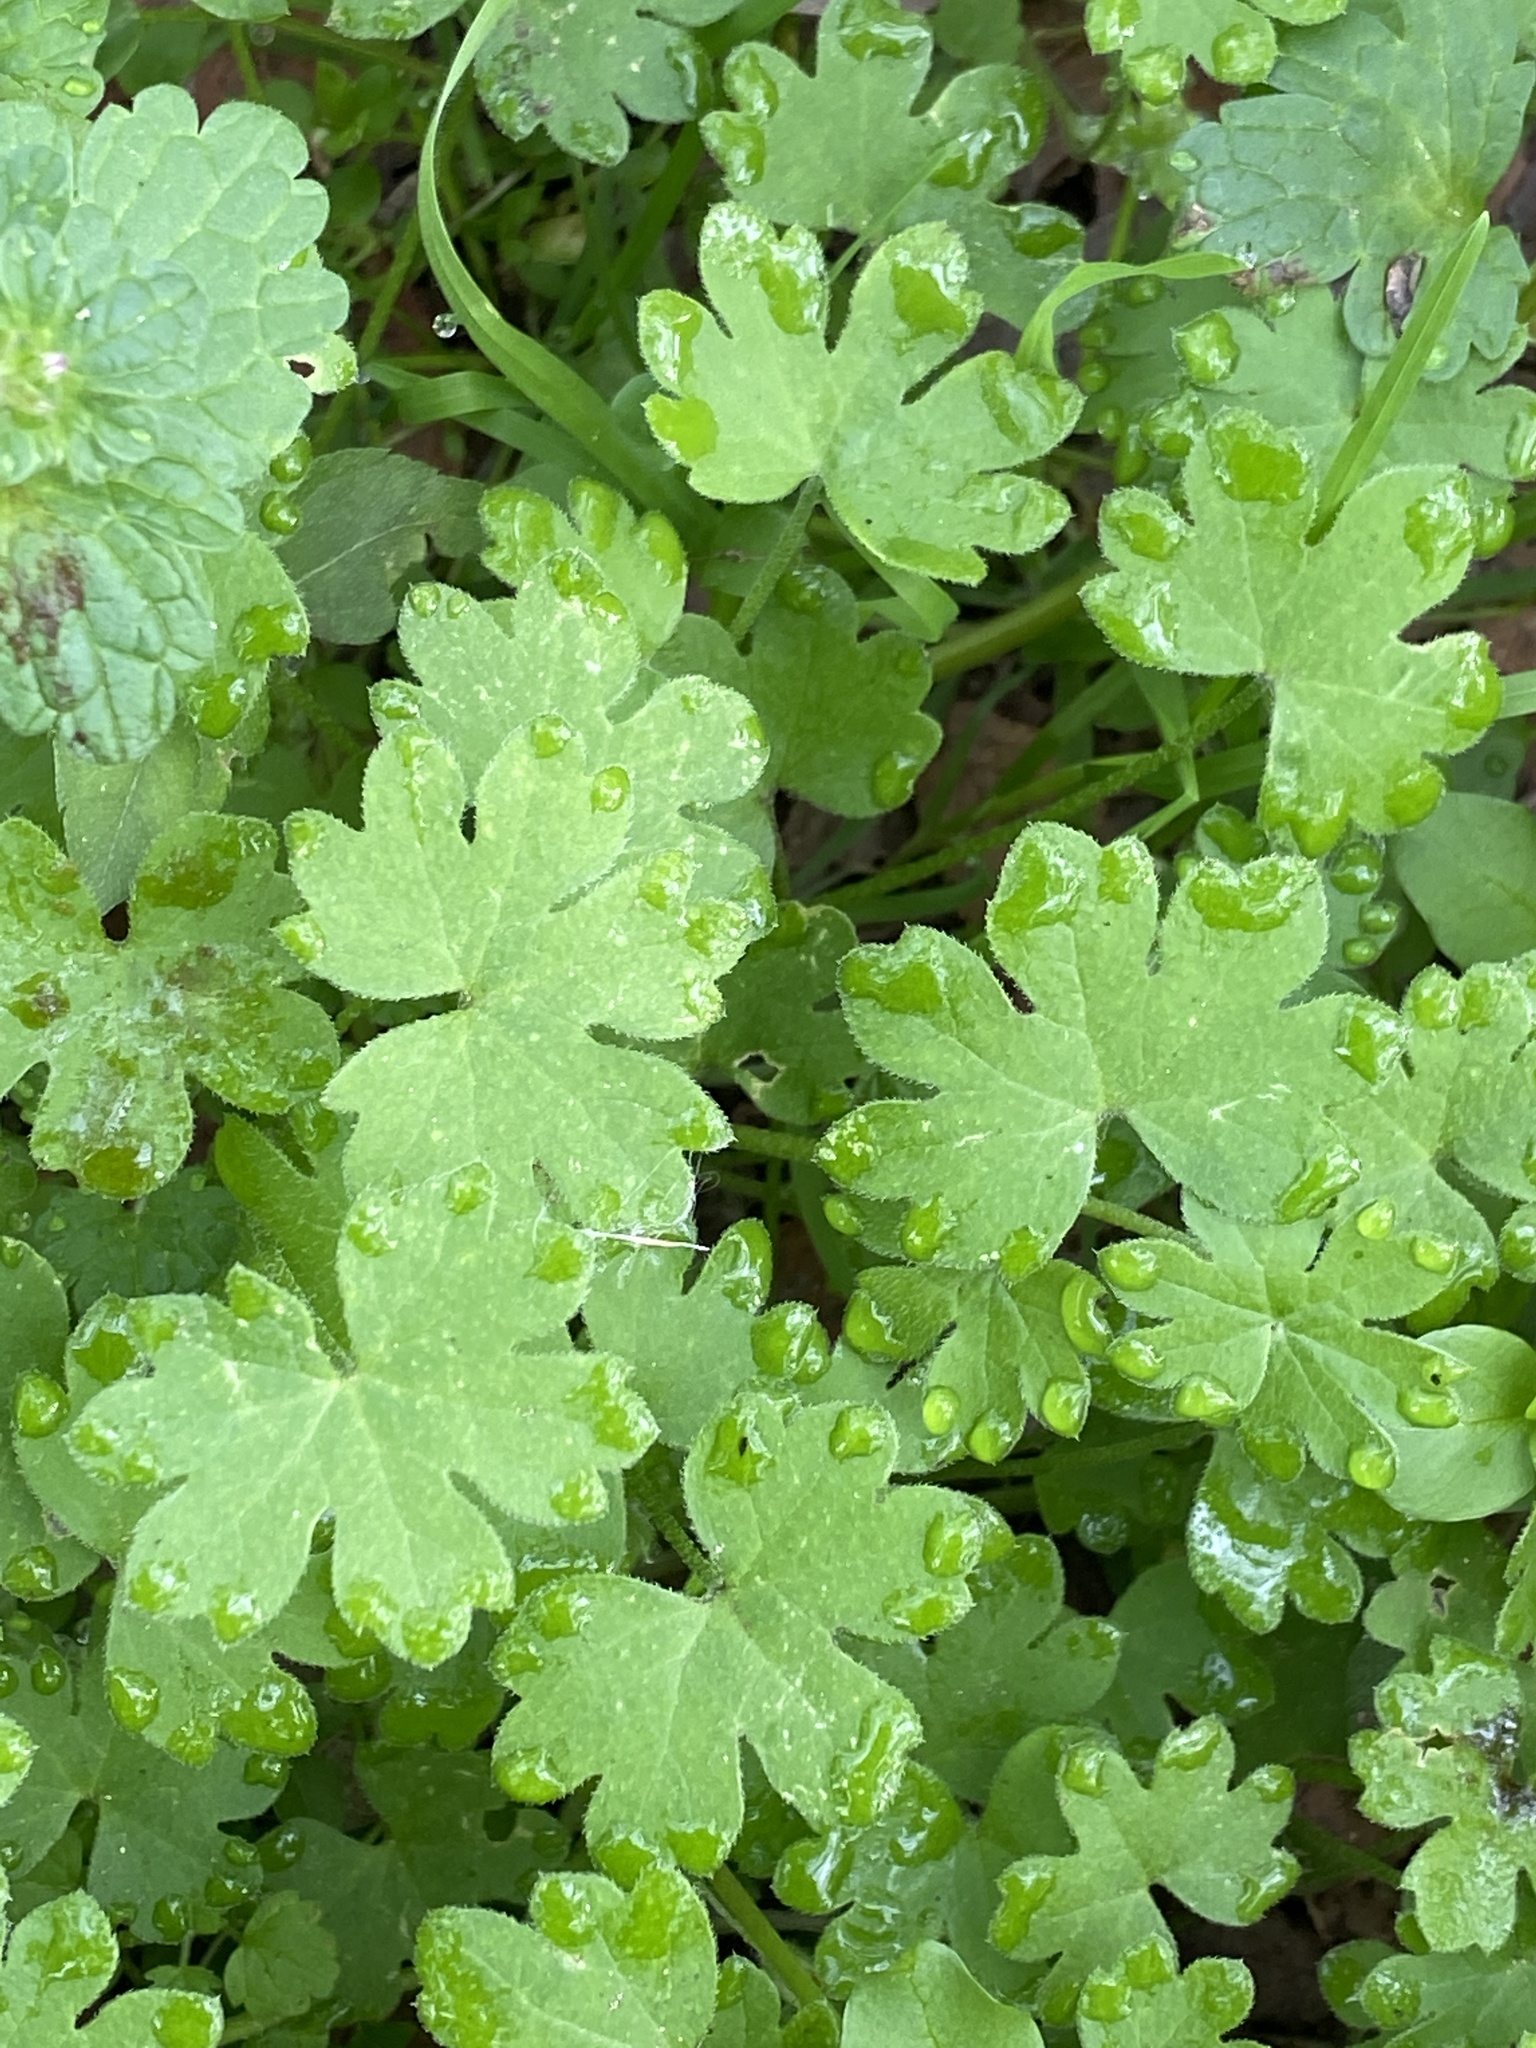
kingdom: Plantae
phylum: Tracheophyta
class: Magnoliopsida
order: Apiales
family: Apiaceae
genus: Bowlesia
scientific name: Bowlesia incana
